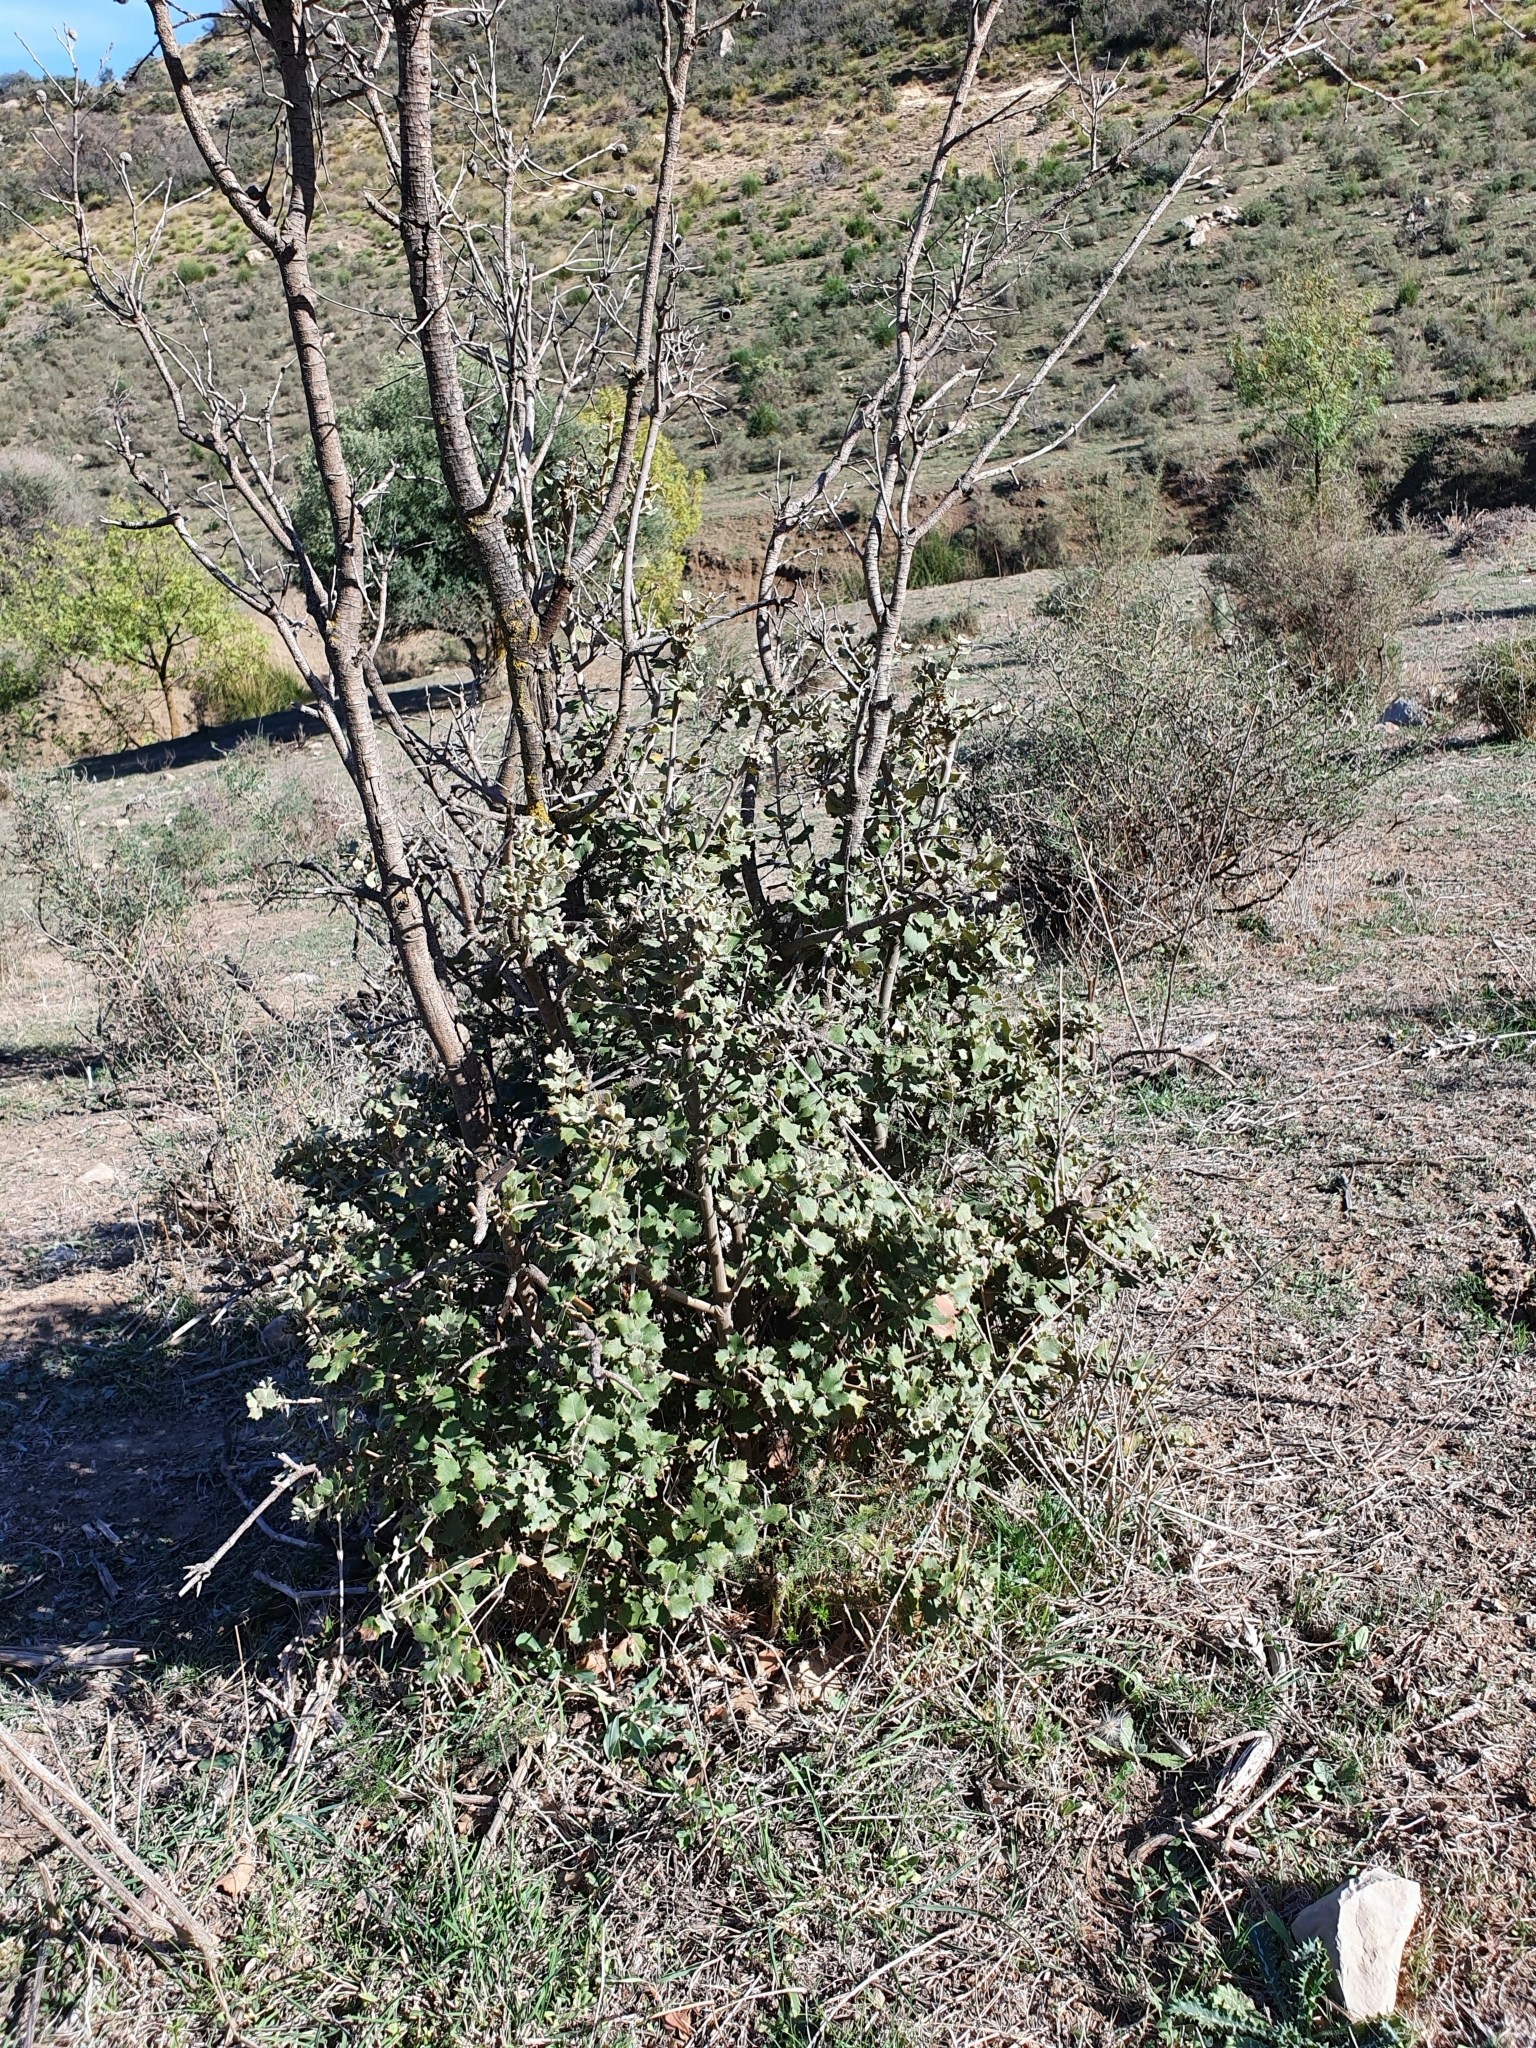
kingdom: Plantae
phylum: Tracheophyta
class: Magnoliopsida
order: Fagales
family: Fagaceae
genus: Quercus
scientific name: Quercus rotundifolia
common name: Holm oak
